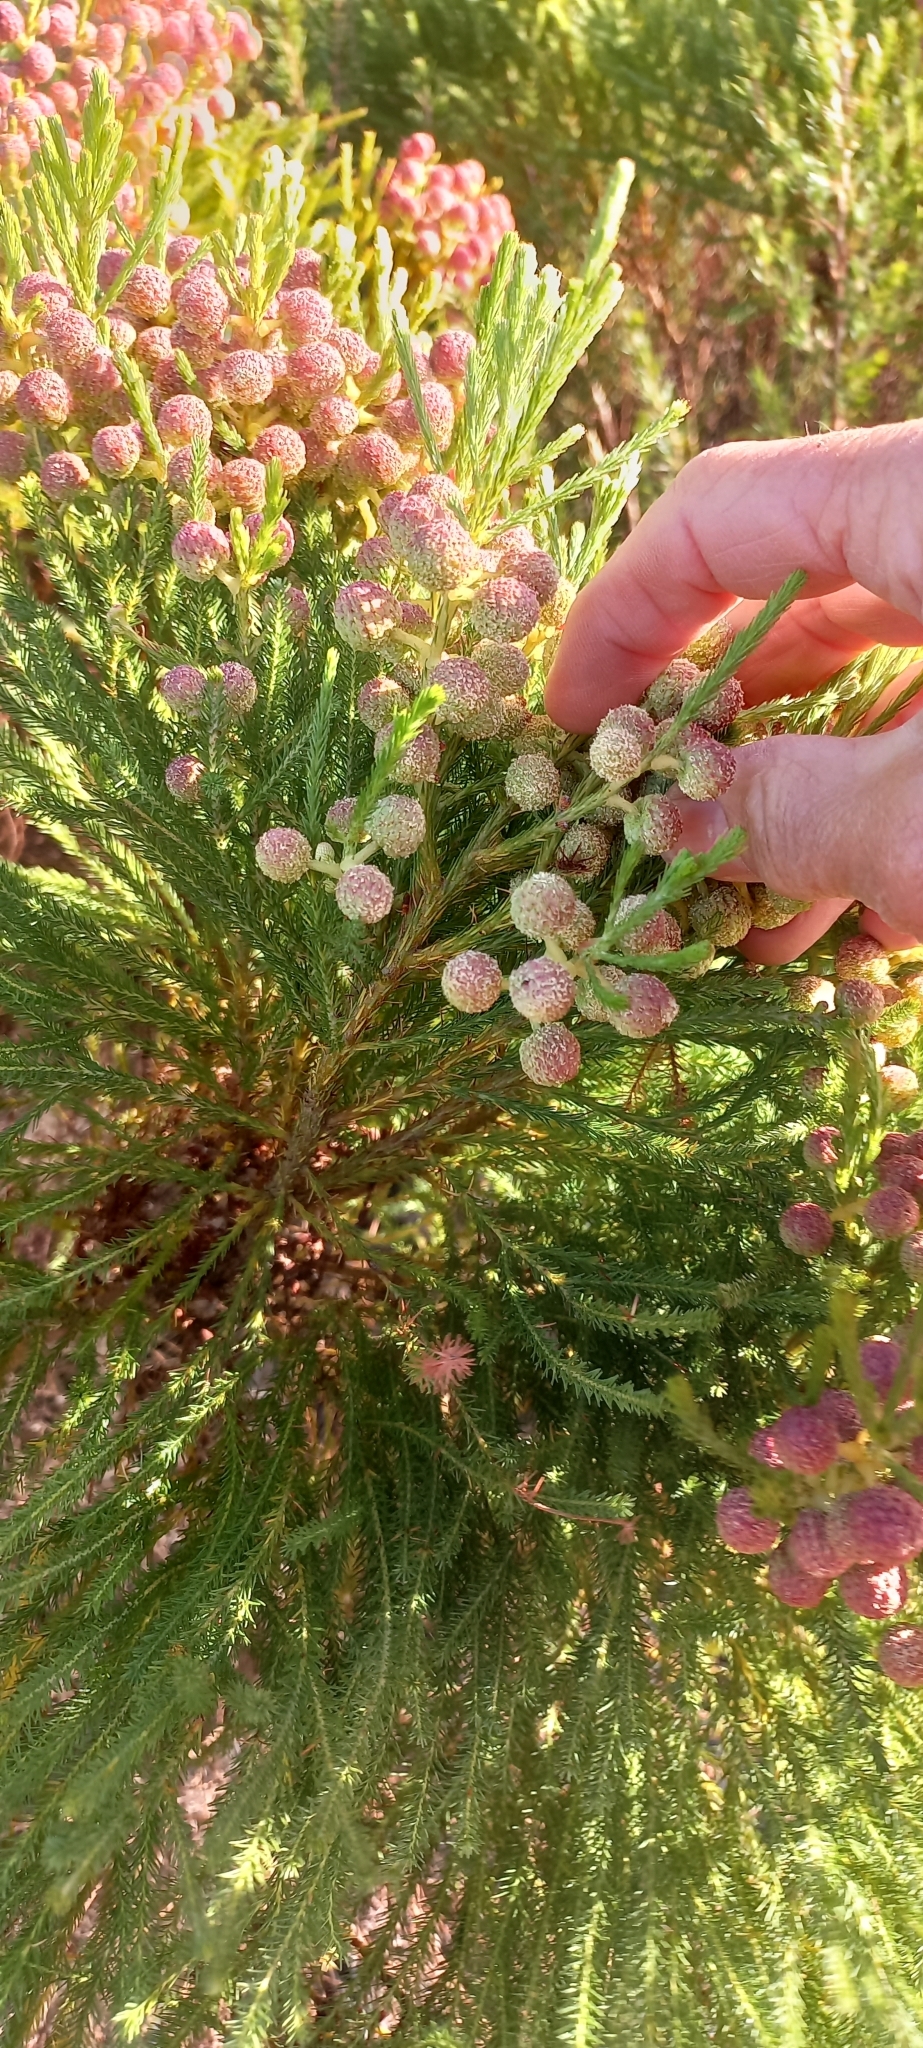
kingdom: Plantae
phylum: Tracheophyta
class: Magnoliopsida
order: Bruniales
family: Bruniaceae
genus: Berzelia
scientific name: Berzelia lanuginosa
